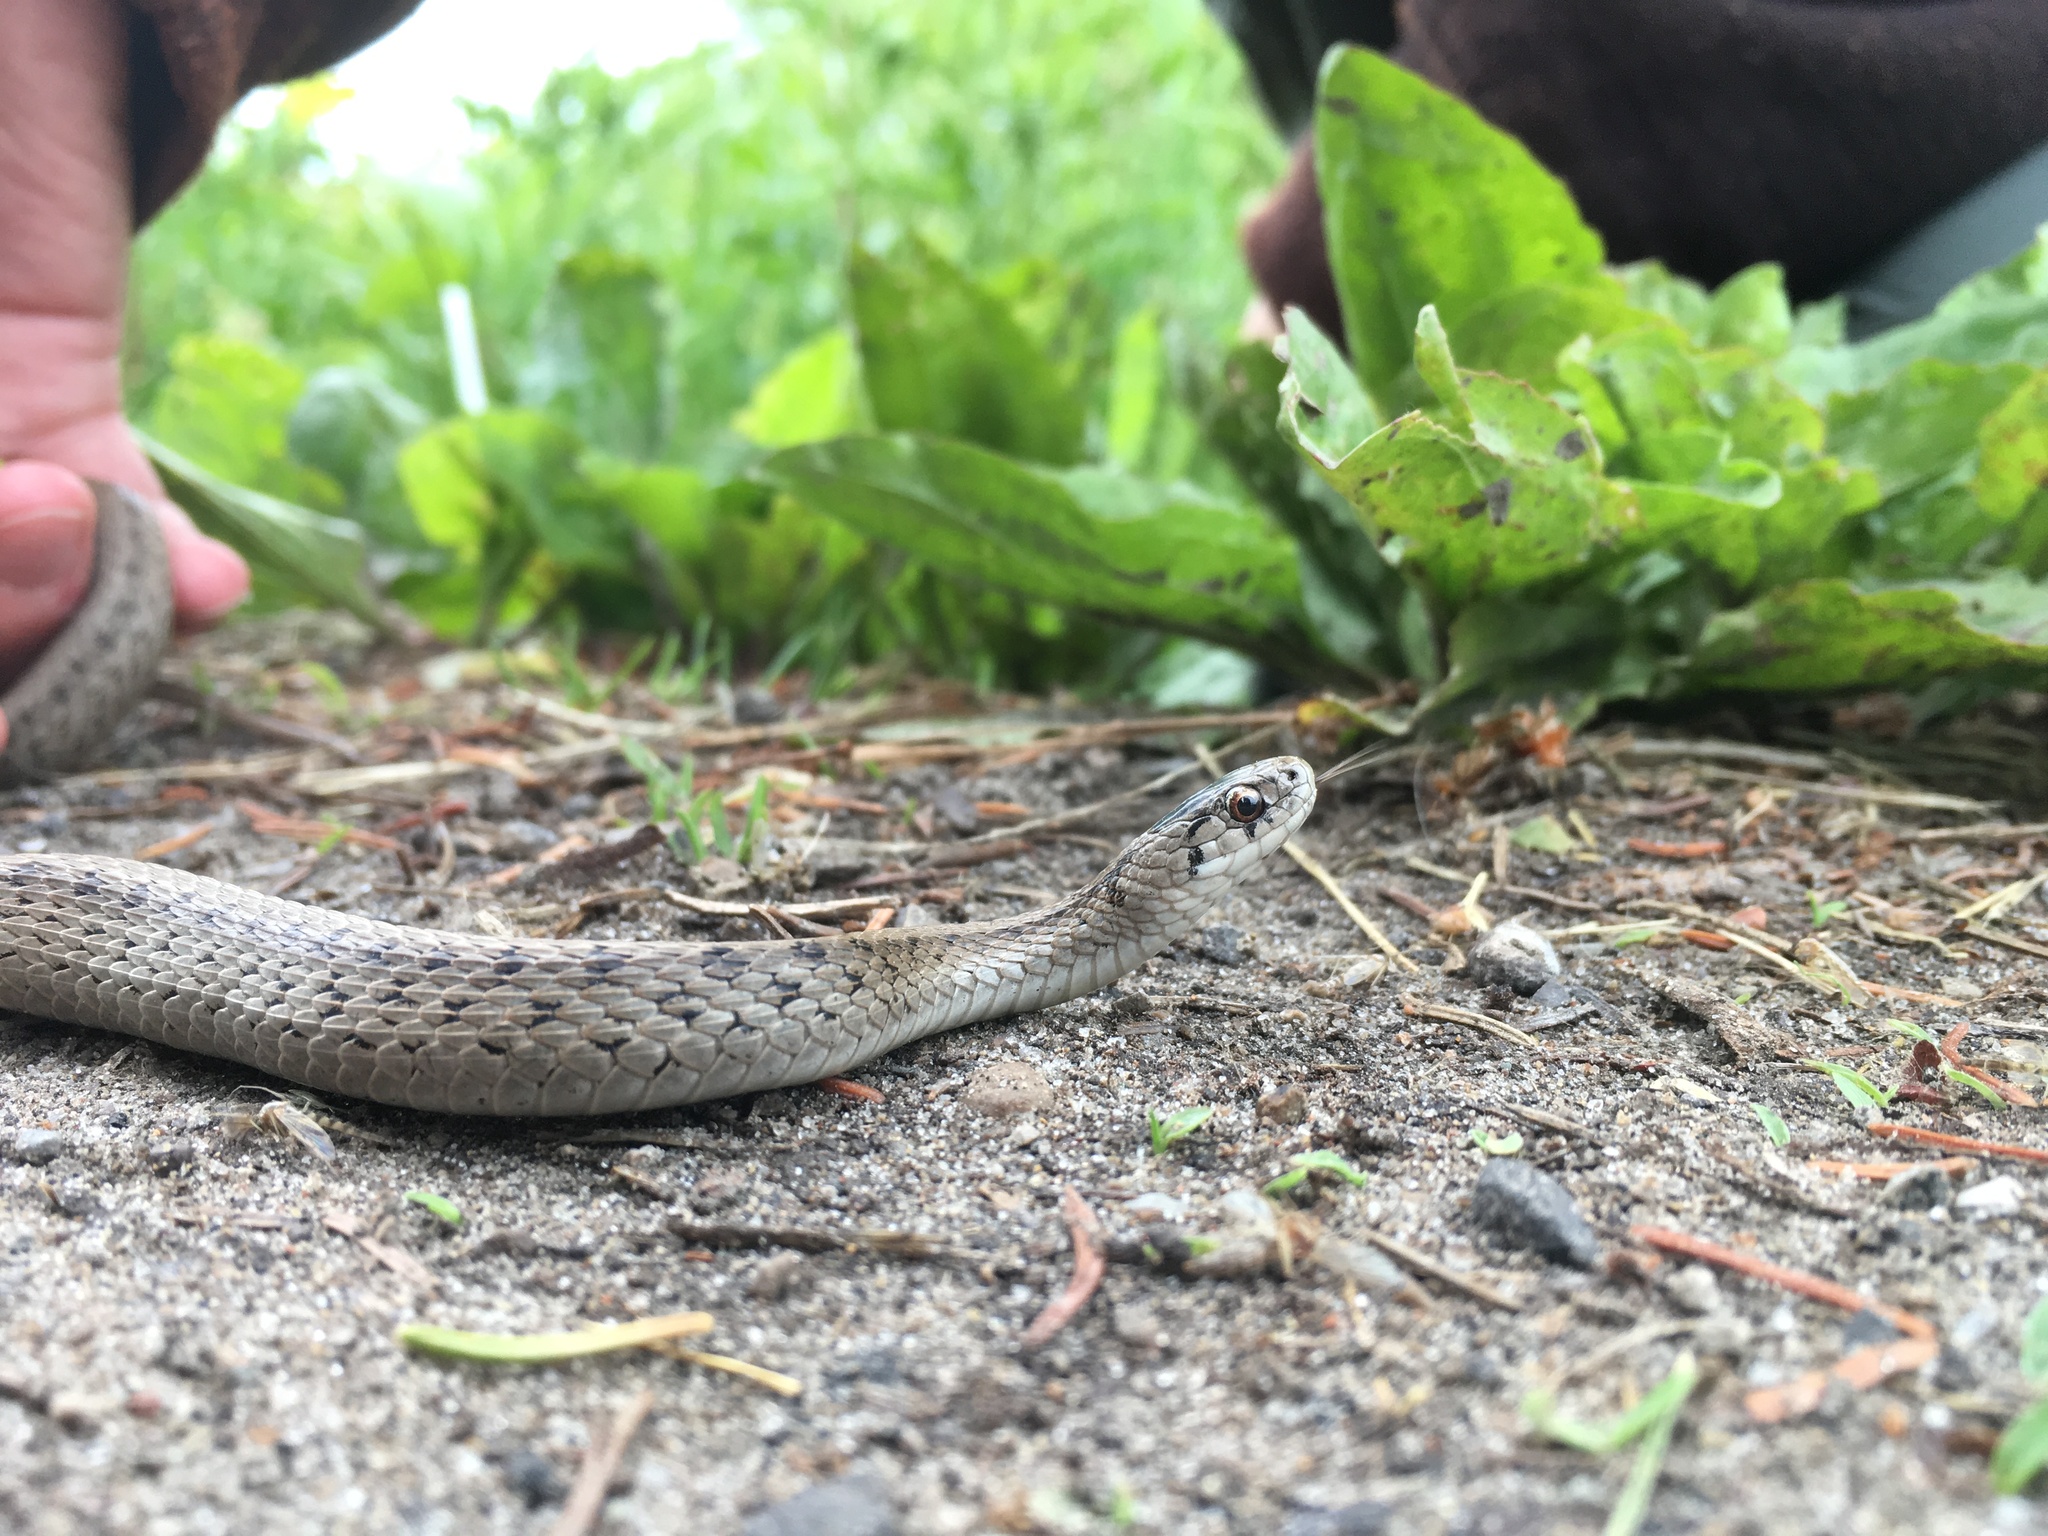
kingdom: Animalia
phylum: Chordata
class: Squamata
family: Colubridae
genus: Storeria
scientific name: Storeria dekayi
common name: (dekay’s) brown snake
